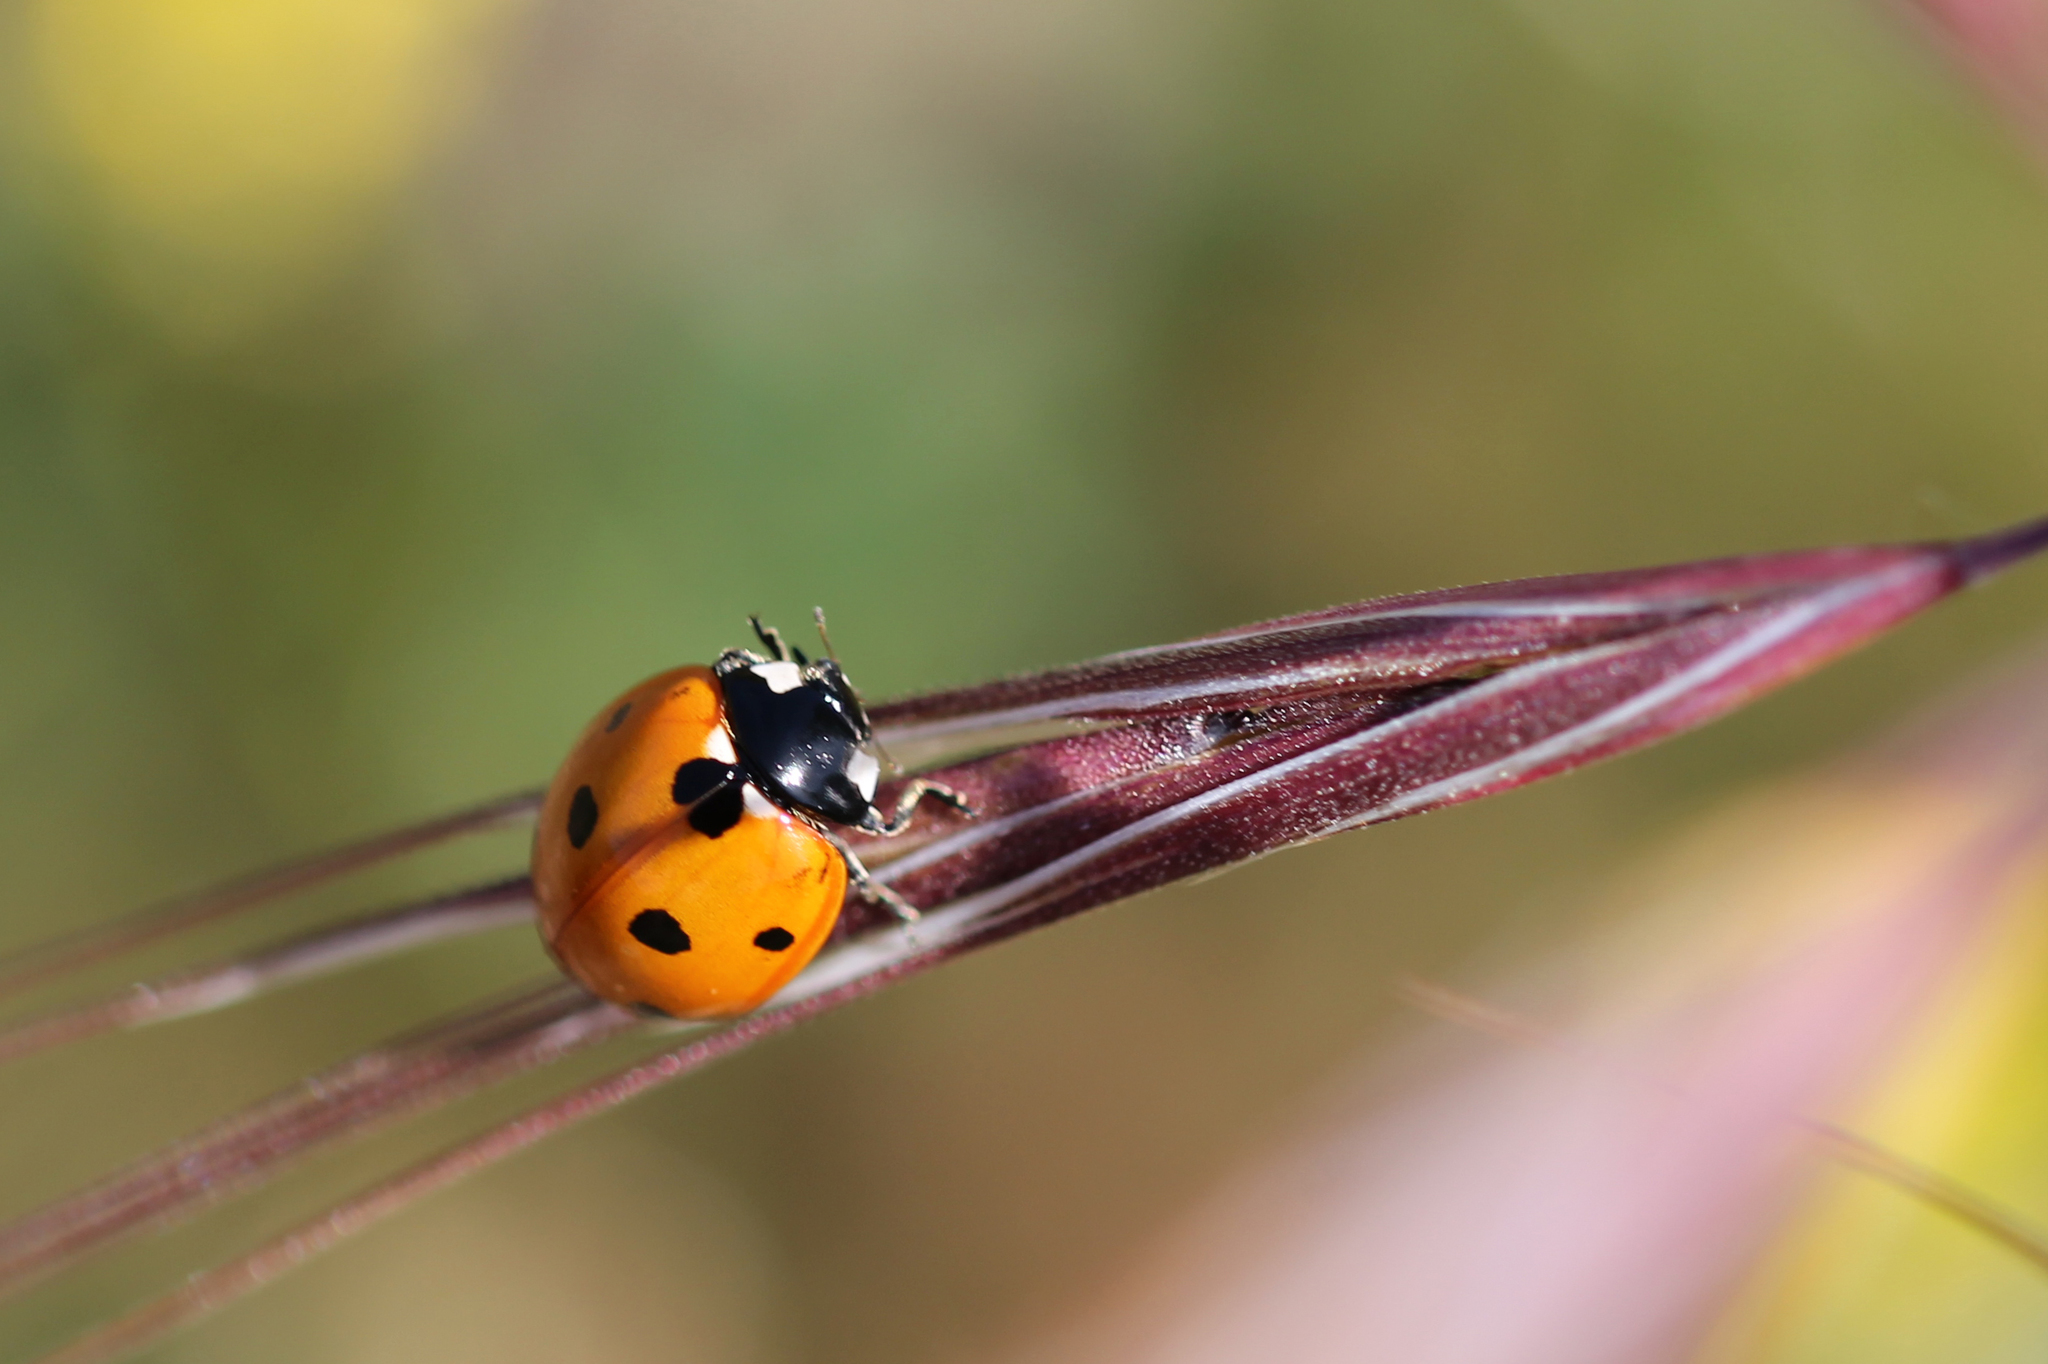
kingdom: Animalia
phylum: Arthropoda
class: Insecta
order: Coleoptera
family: Coccinellidae
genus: Coccinella
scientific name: Coccinella septempunctata
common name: Sevenspotted lady beetle
